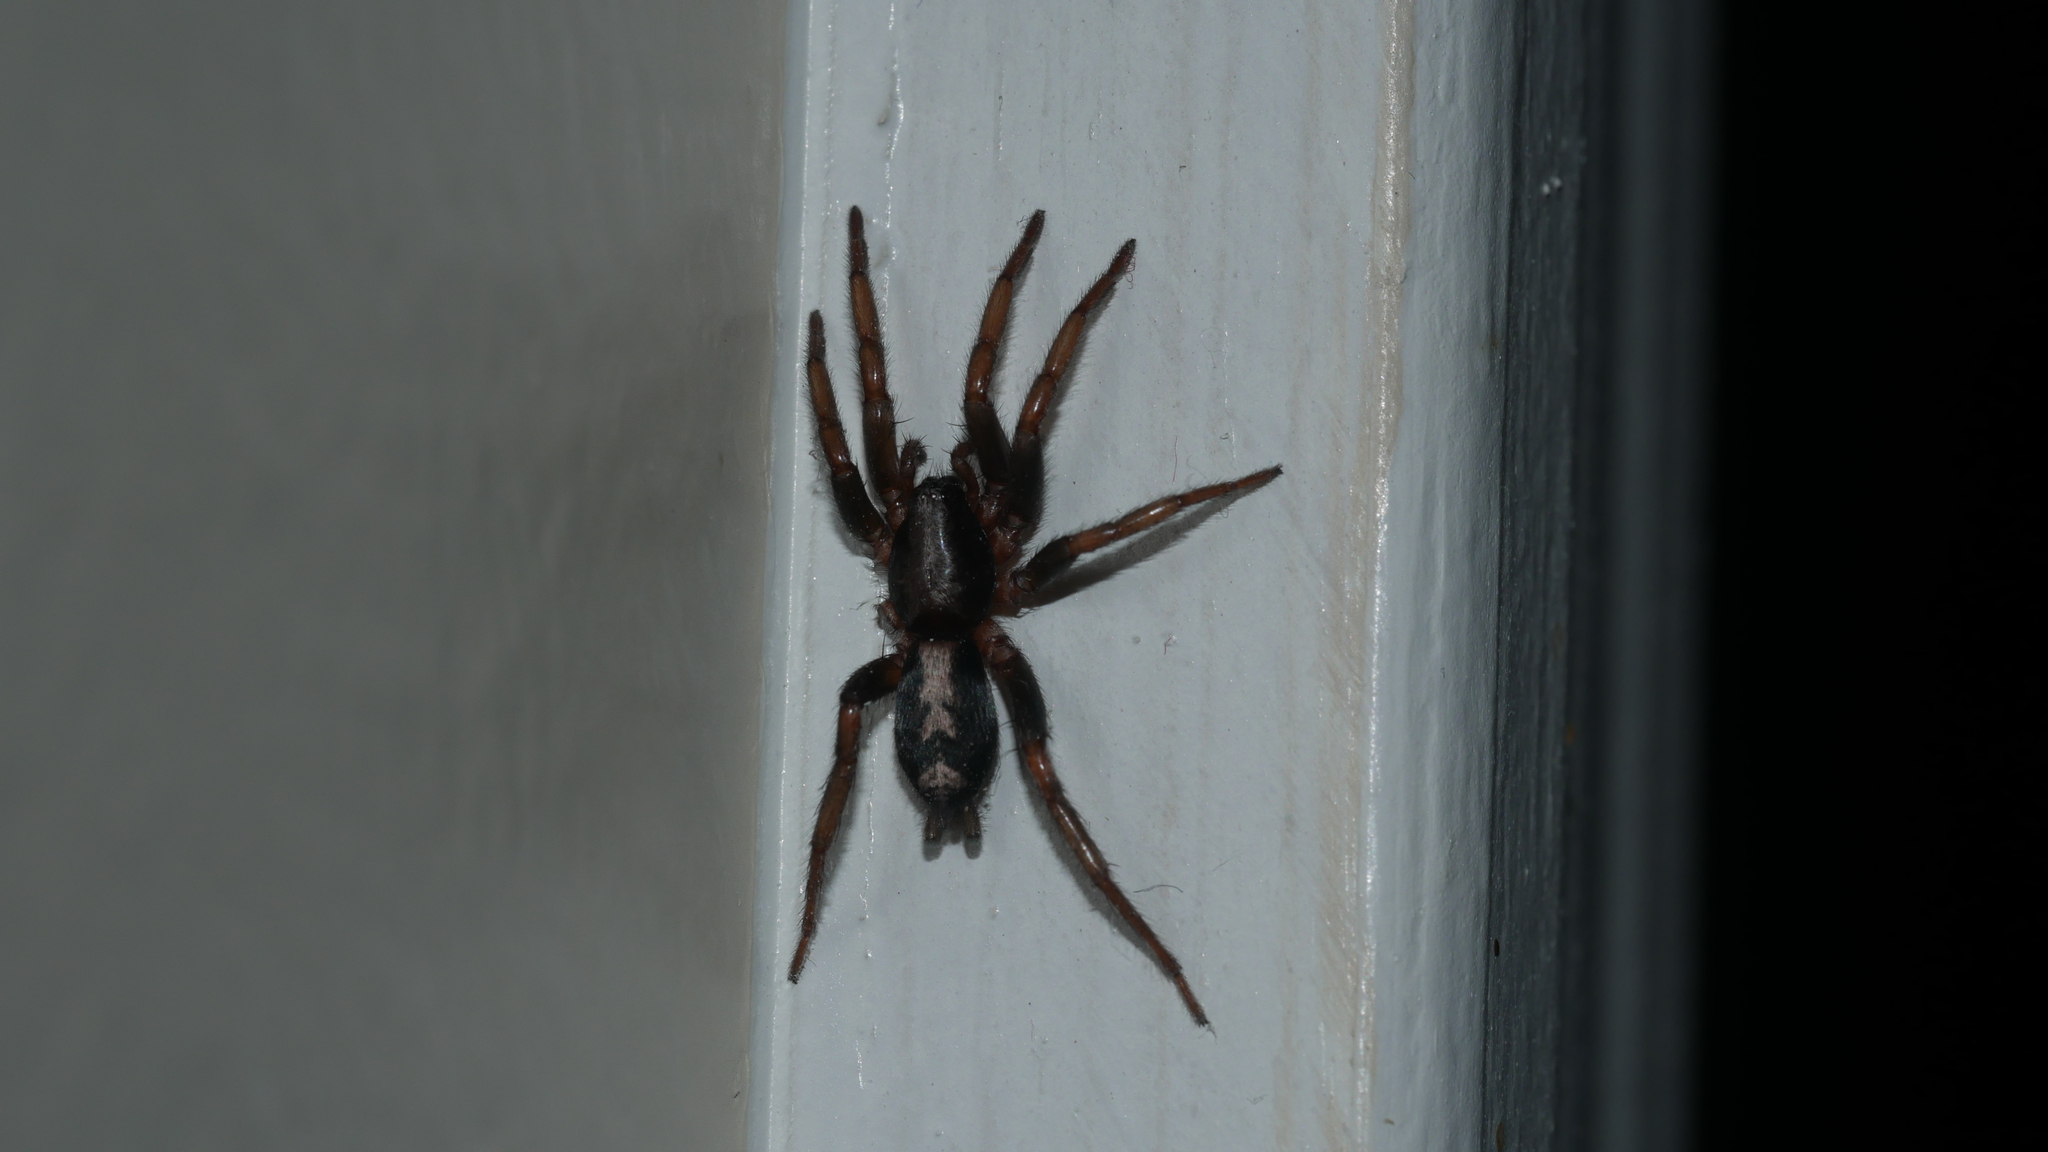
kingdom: Animalia
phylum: Arthropoda
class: Arachnida
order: Araneae
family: Gnaphosidae
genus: Herpyllus
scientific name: Herpyllus ecclesiasticus
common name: Eastern parson spider
